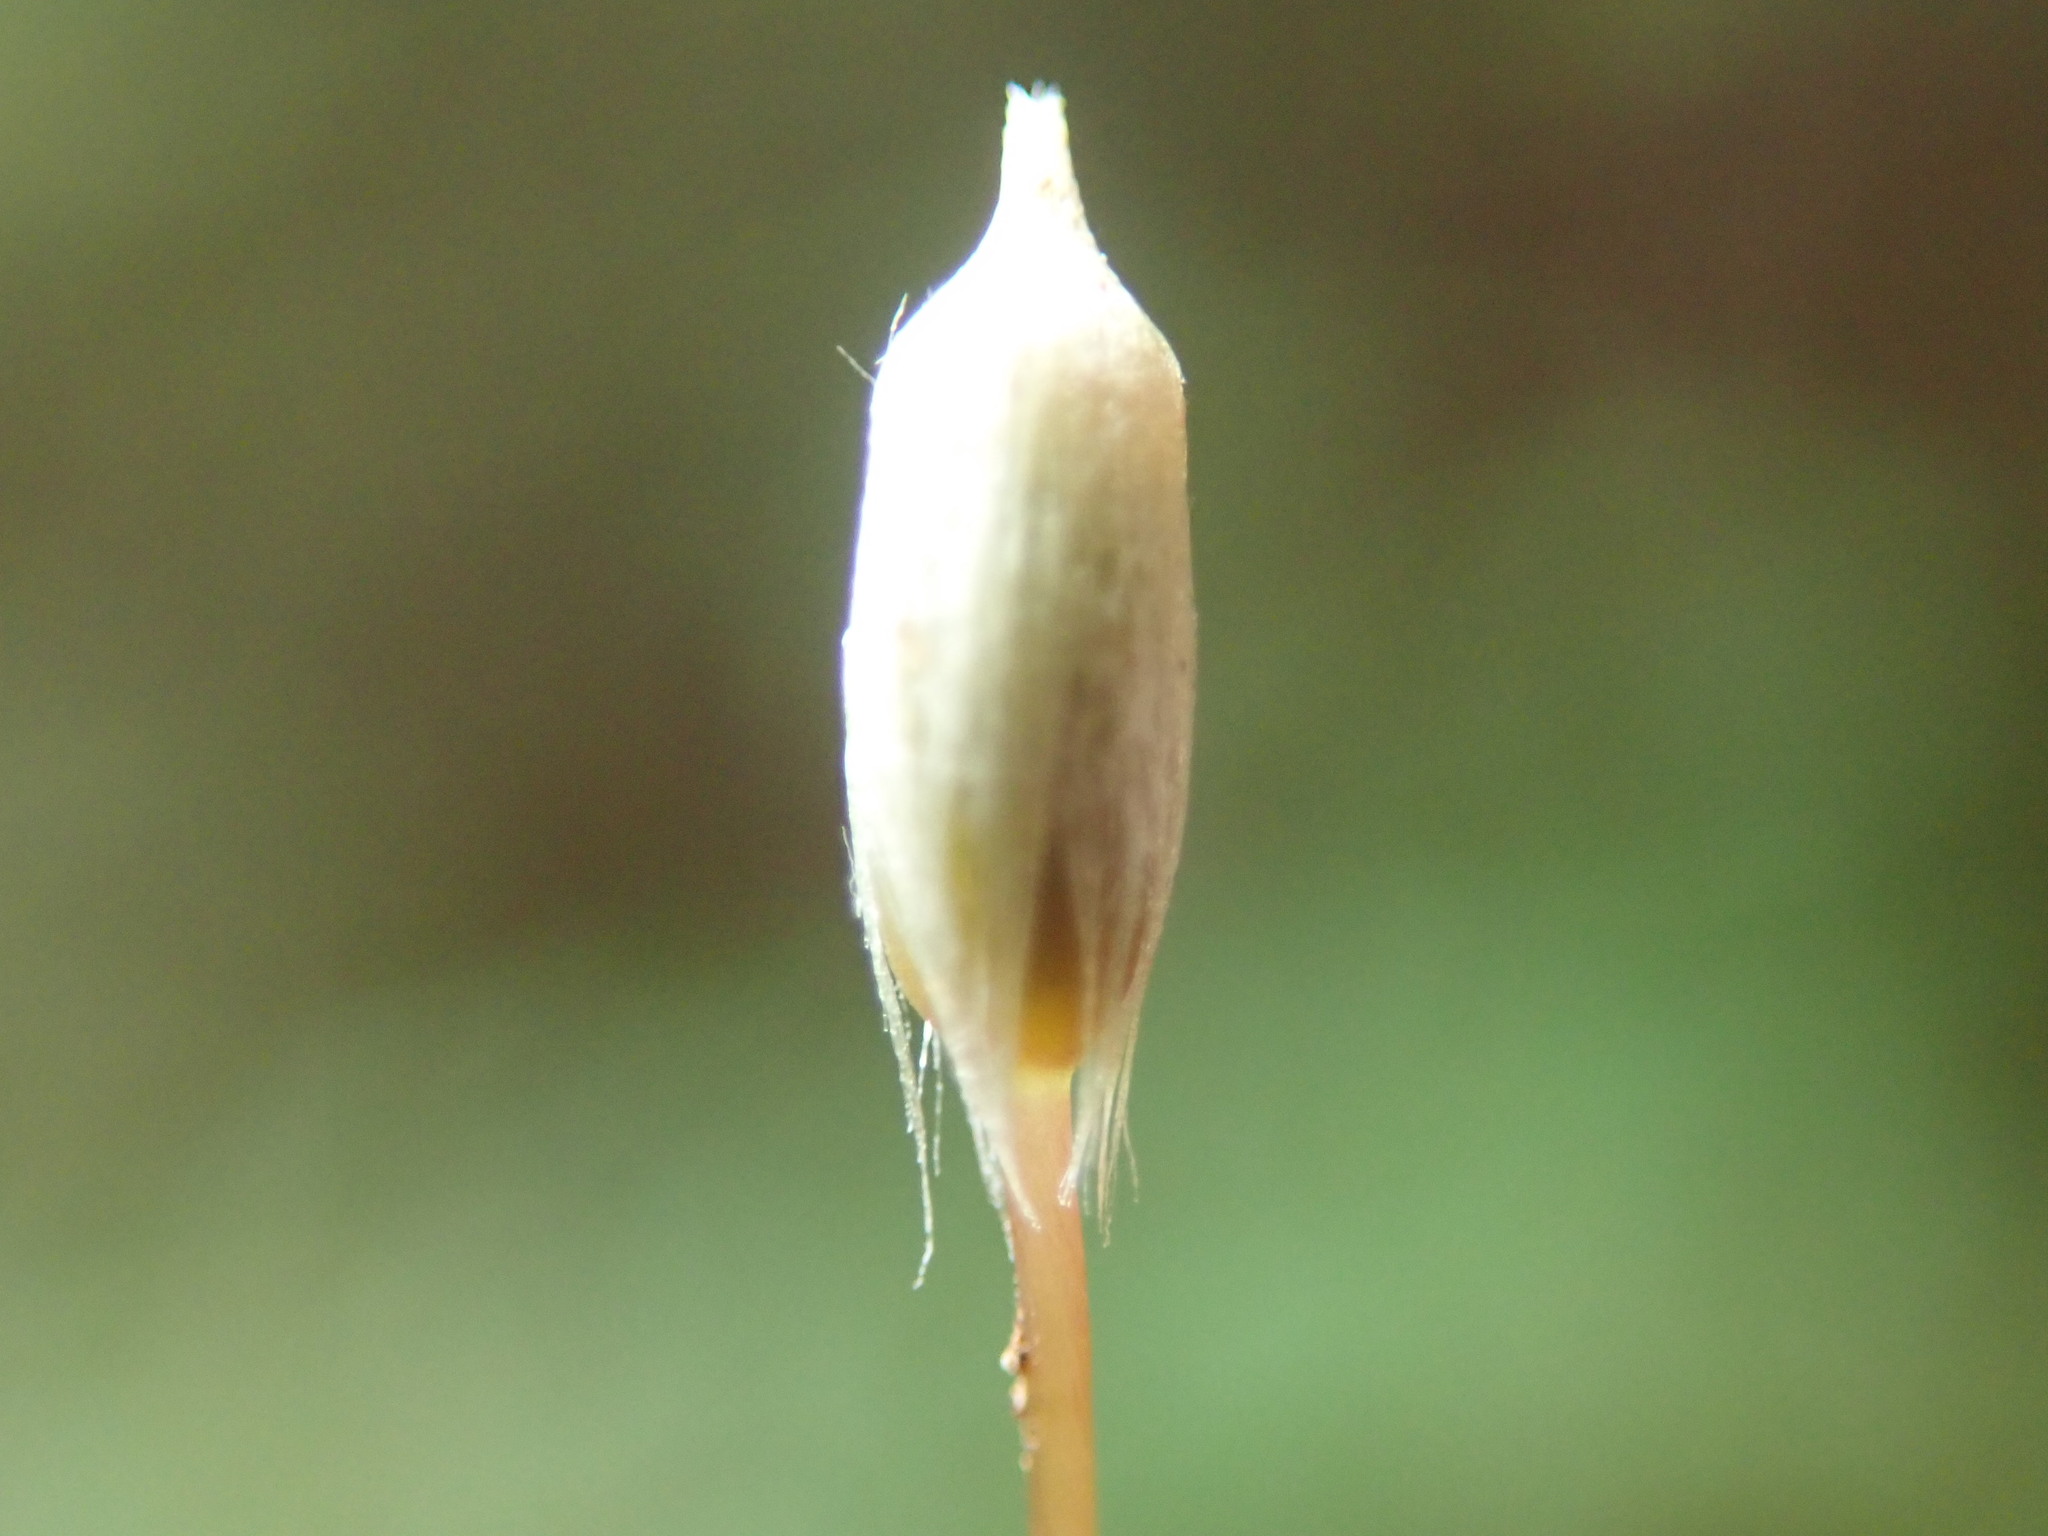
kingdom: Plantae
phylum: Bryophyta
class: Polytrichopsida
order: Polytrichales
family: Polytrichaceae
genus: Pogonatum
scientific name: Pogonatum contortum
